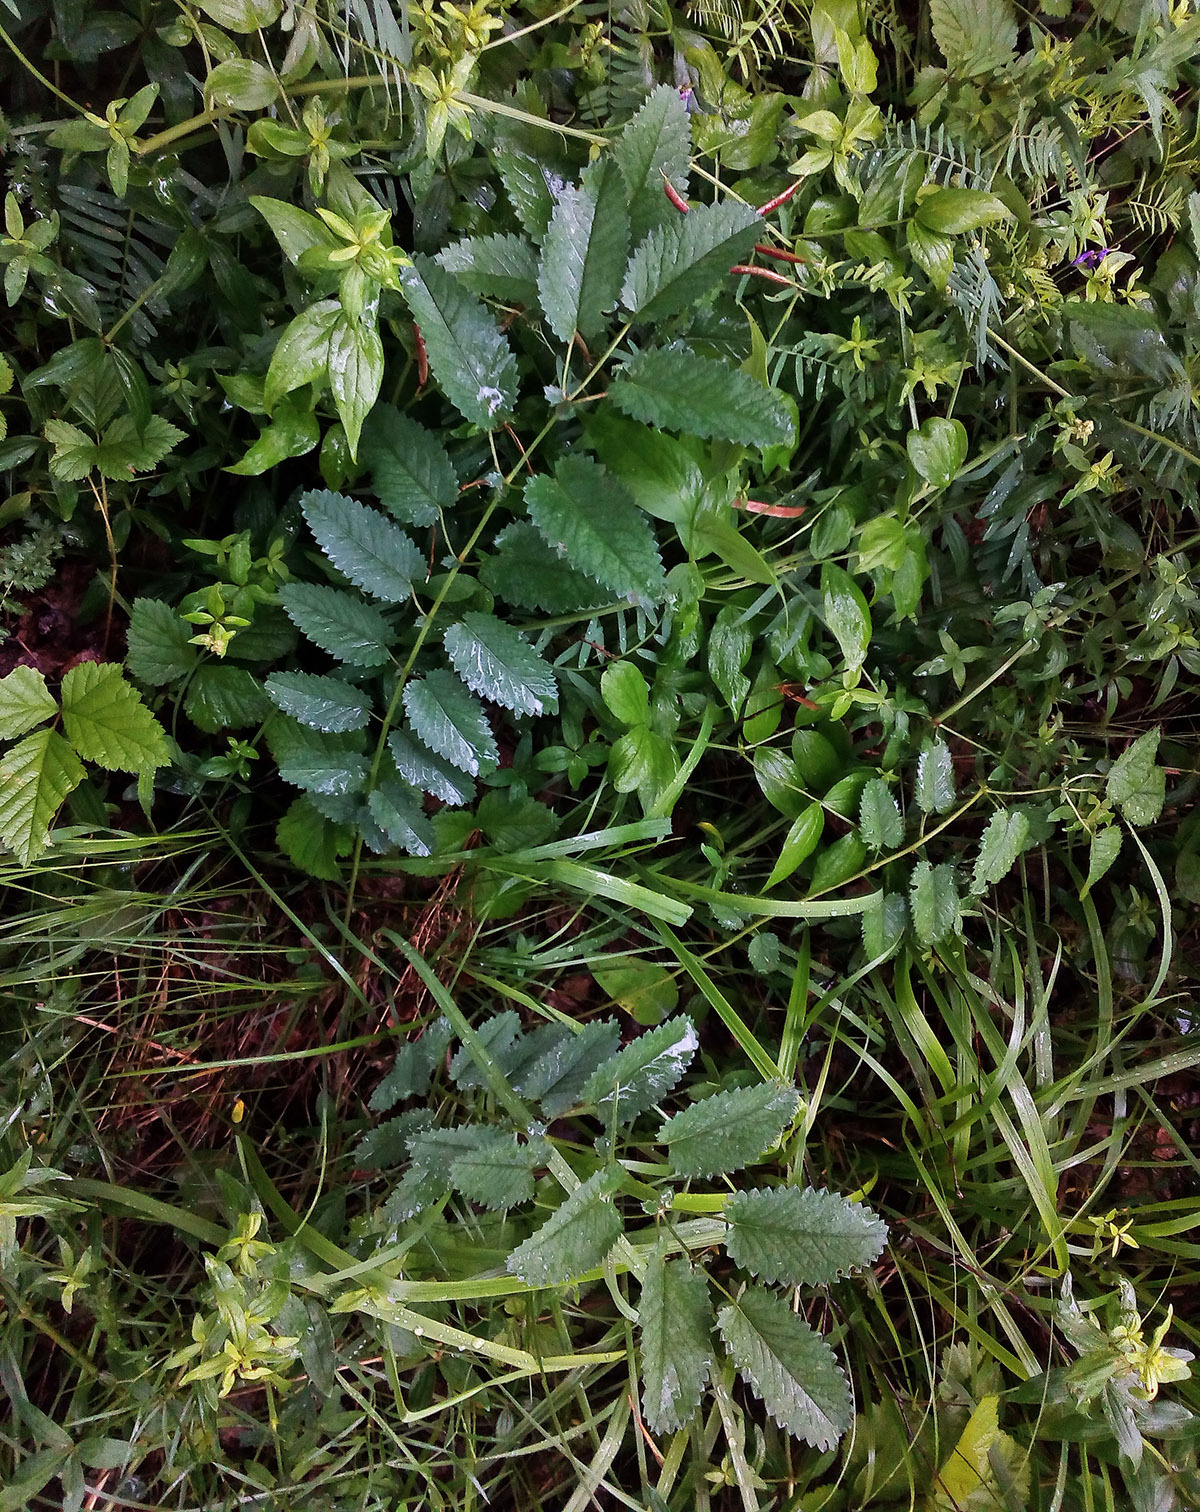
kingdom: Plantae
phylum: Tracheophyta
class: Magnoliopsida
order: Rosales
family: Rosaceae
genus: Sanguisorba
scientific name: Sanguisorba officinalis
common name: Great burnet
